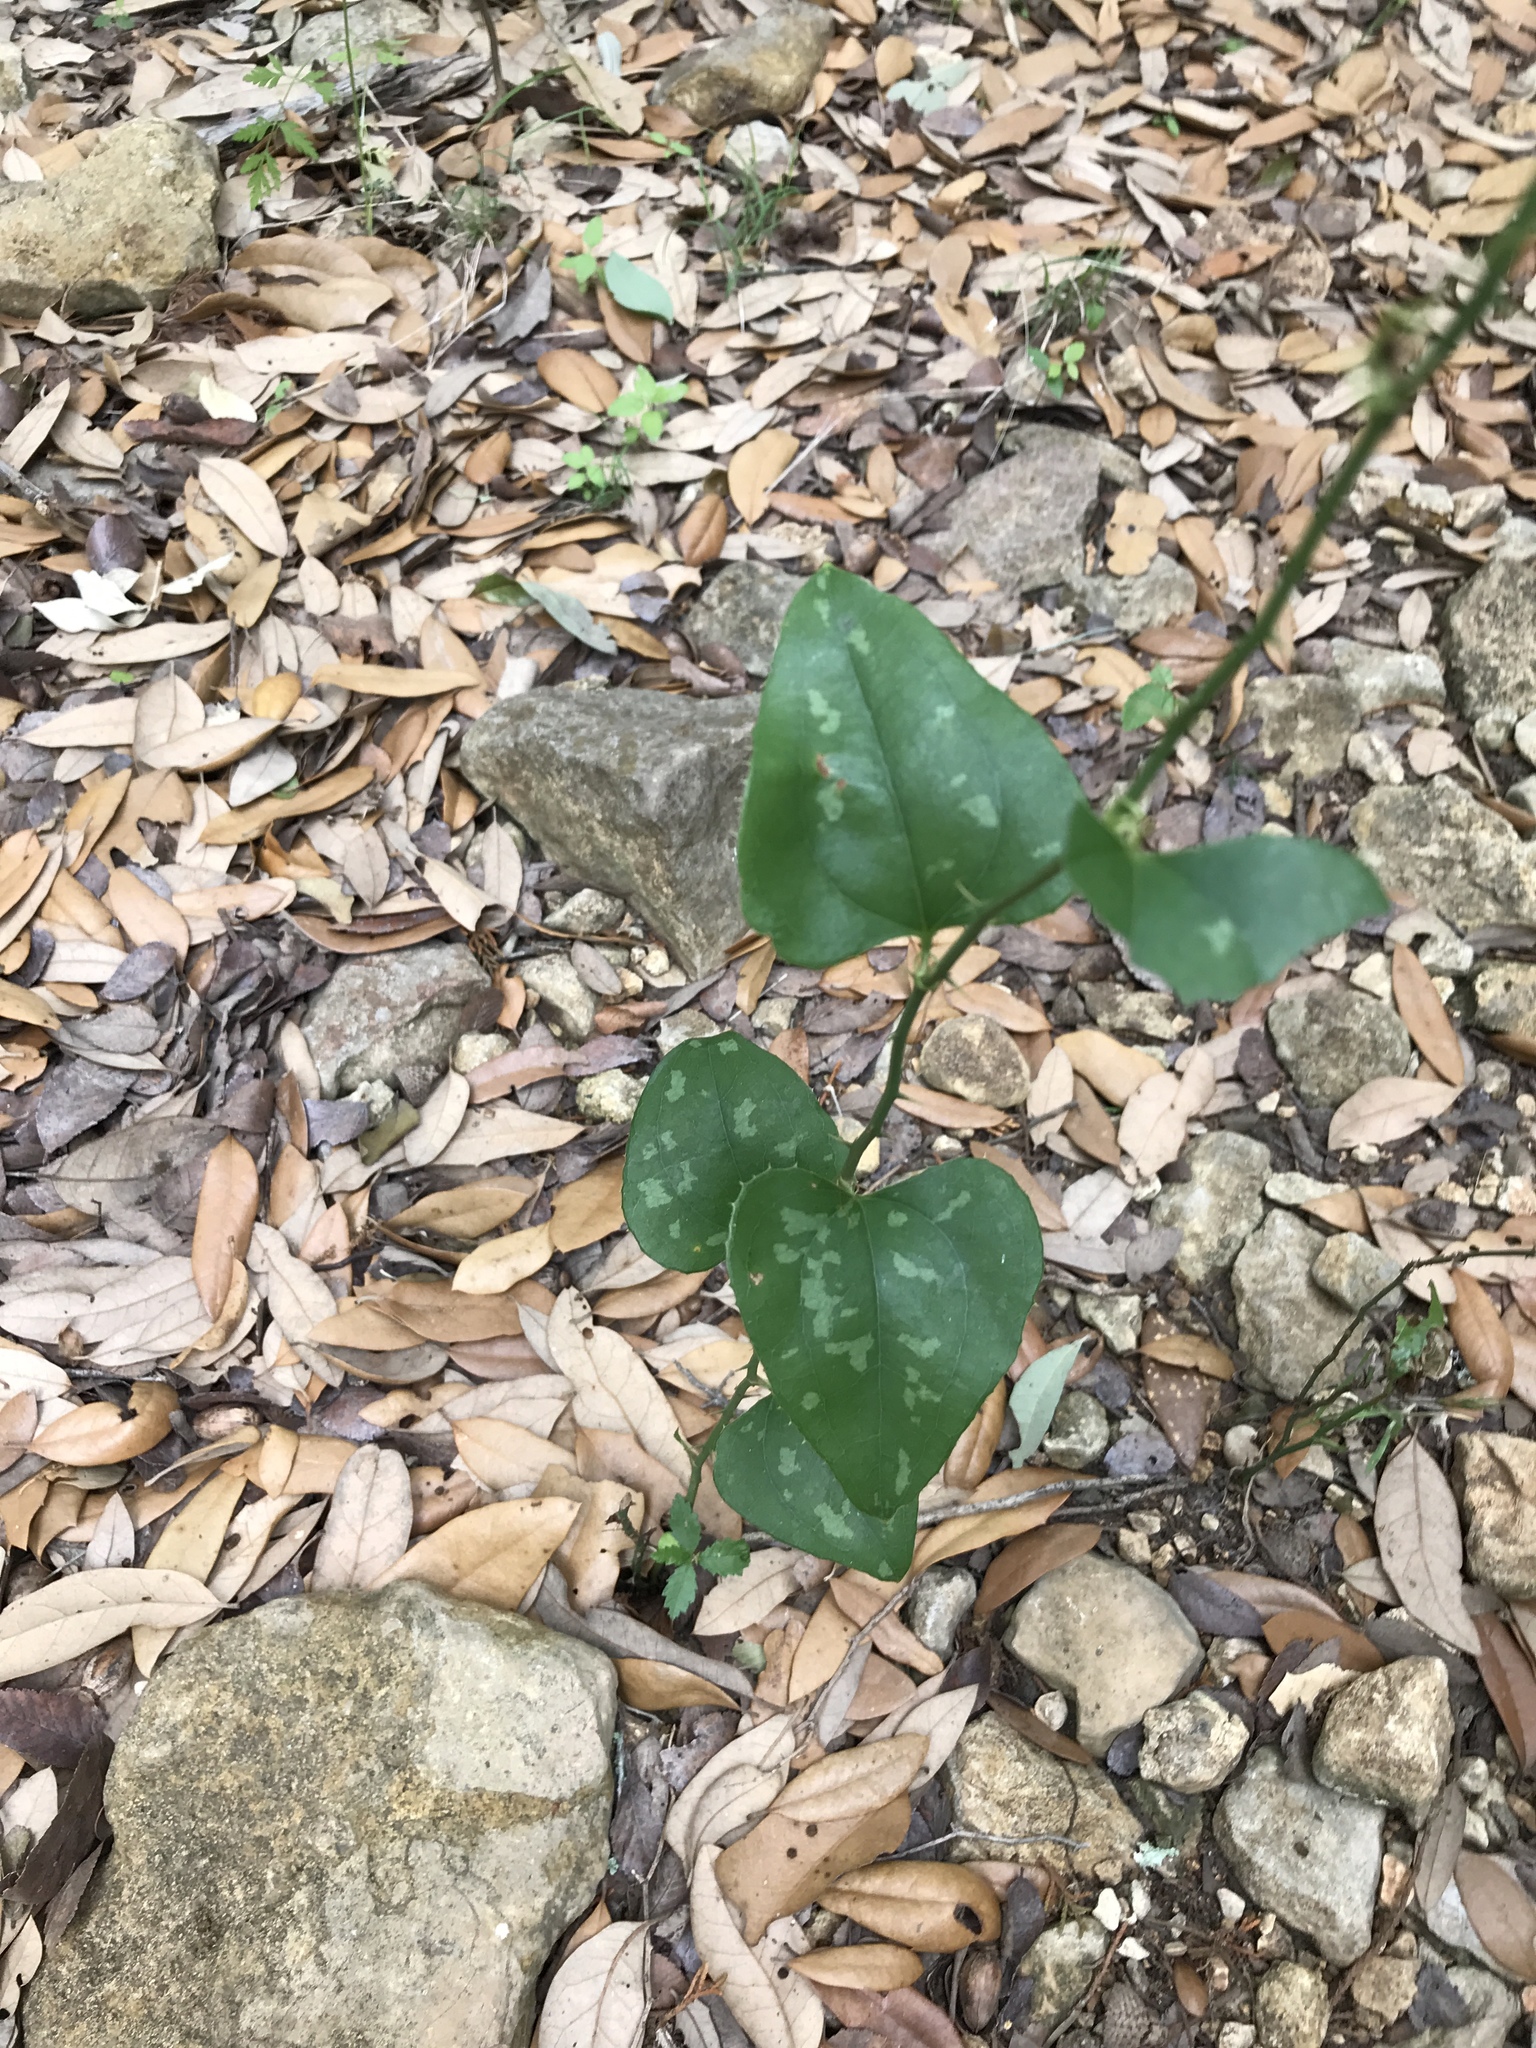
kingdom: Plantae
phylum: Tracheophyta
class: Liliopsida
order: Liliales
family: Smilacaceae
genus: Smilax
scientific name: Smilax bona-nox
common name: Catbrier
